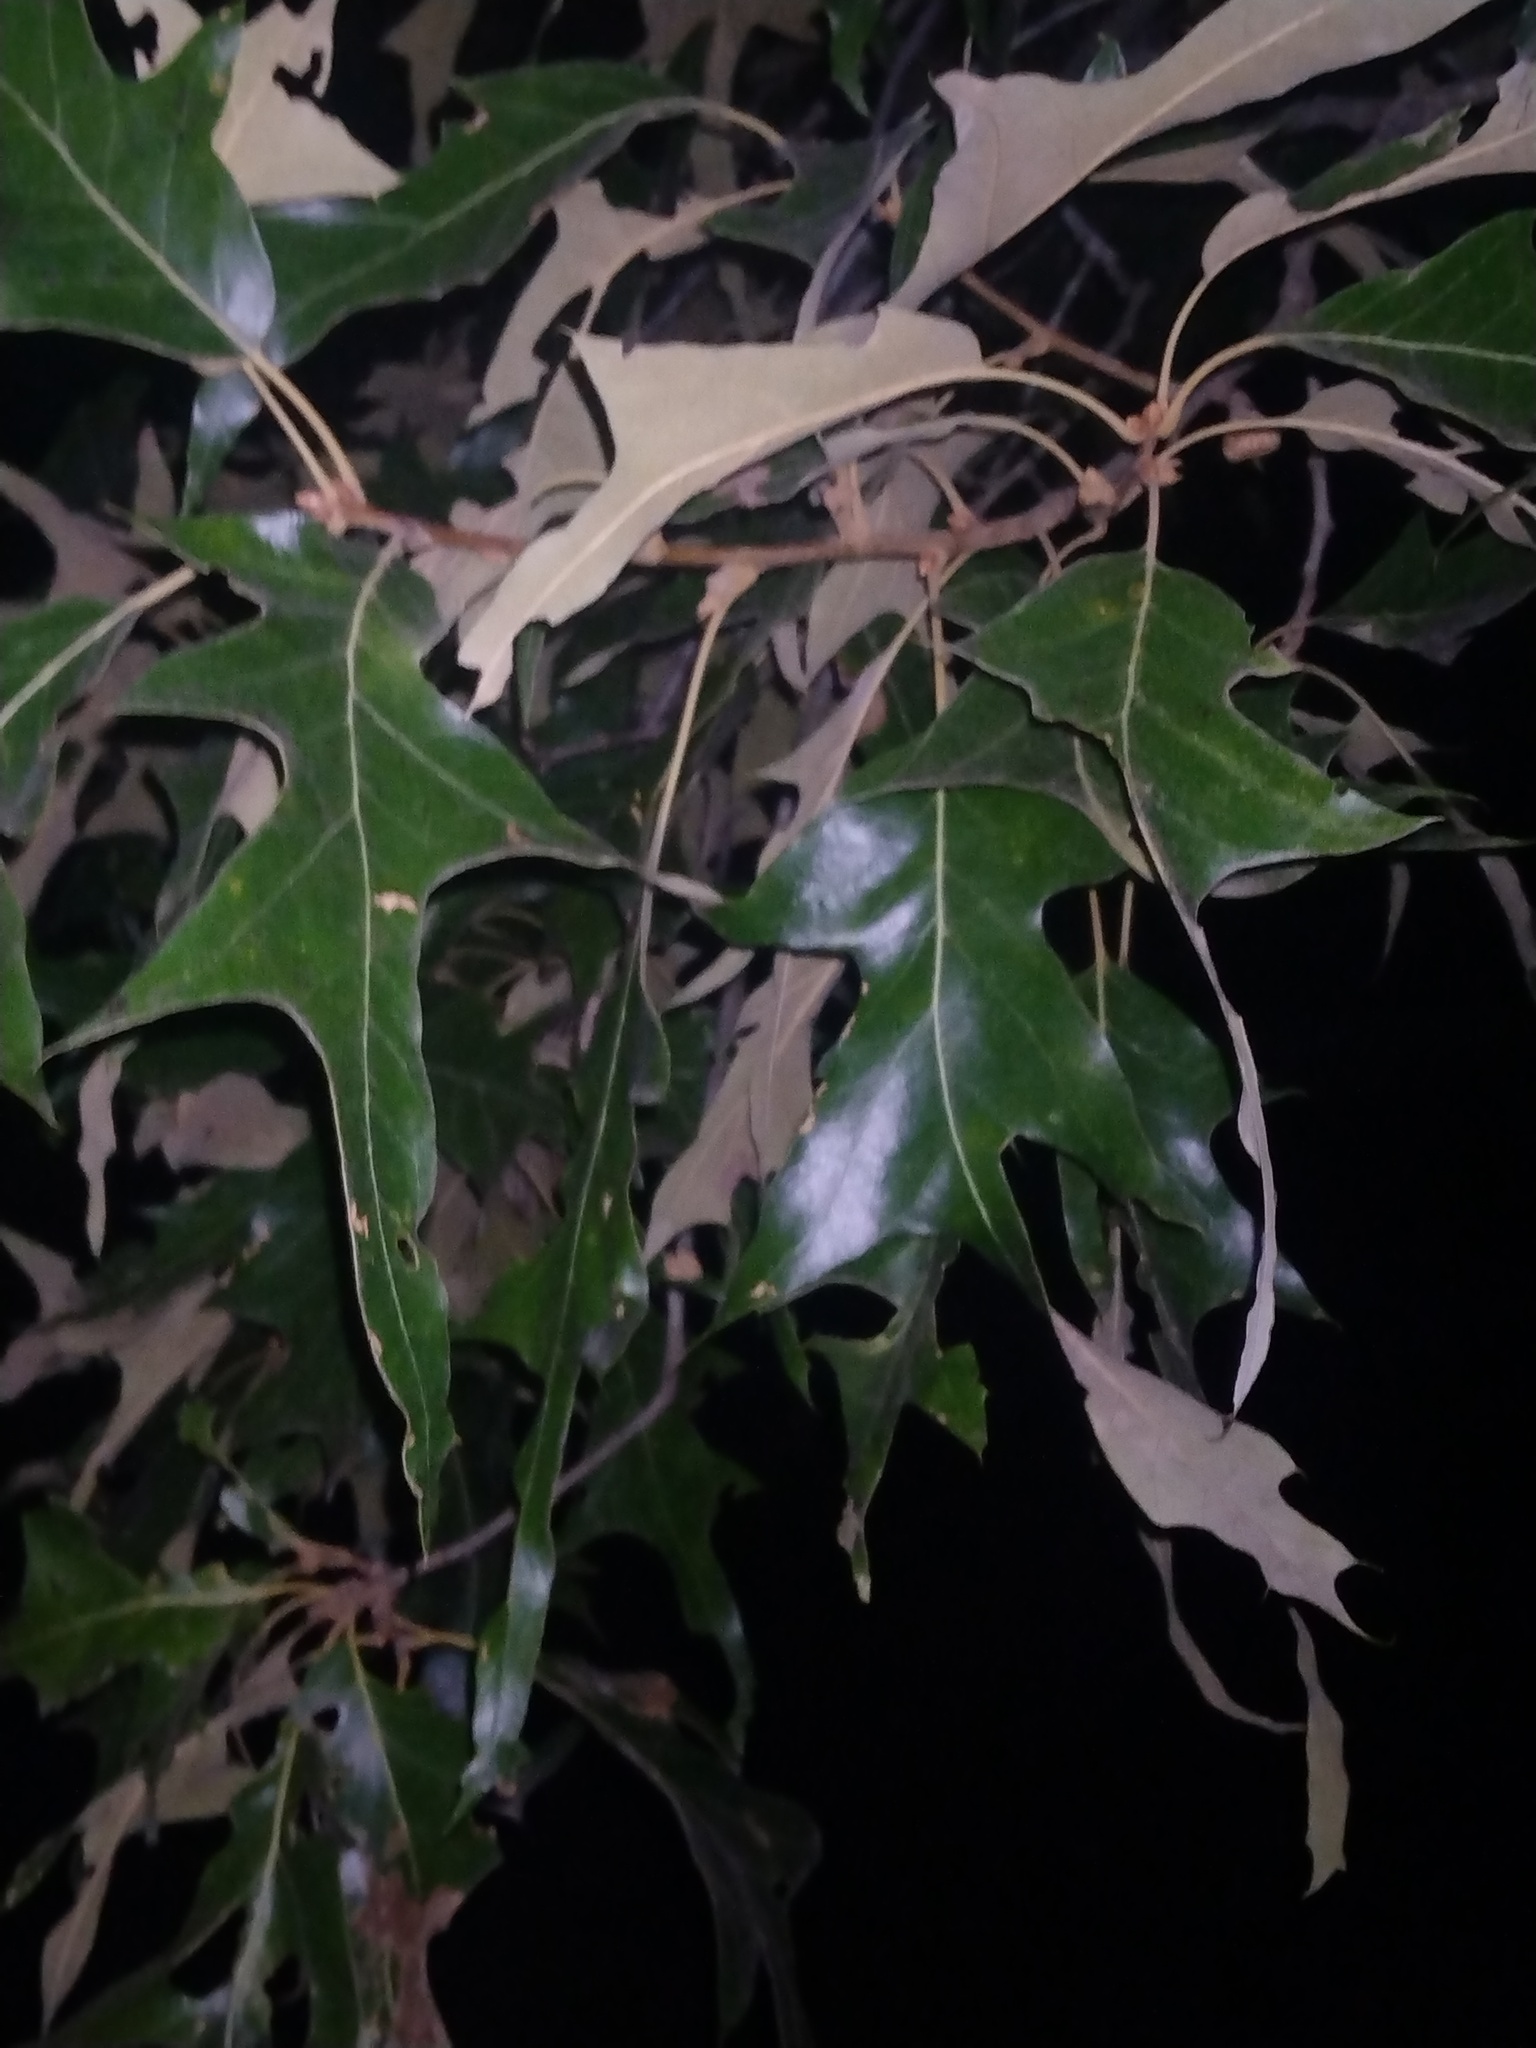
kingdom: Plantae
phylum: Tracheophyta
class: Magnoliopsida
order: Fagales
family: Fagaceae
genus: Quercus
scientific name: Quercus falcata
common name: Southern red oak
